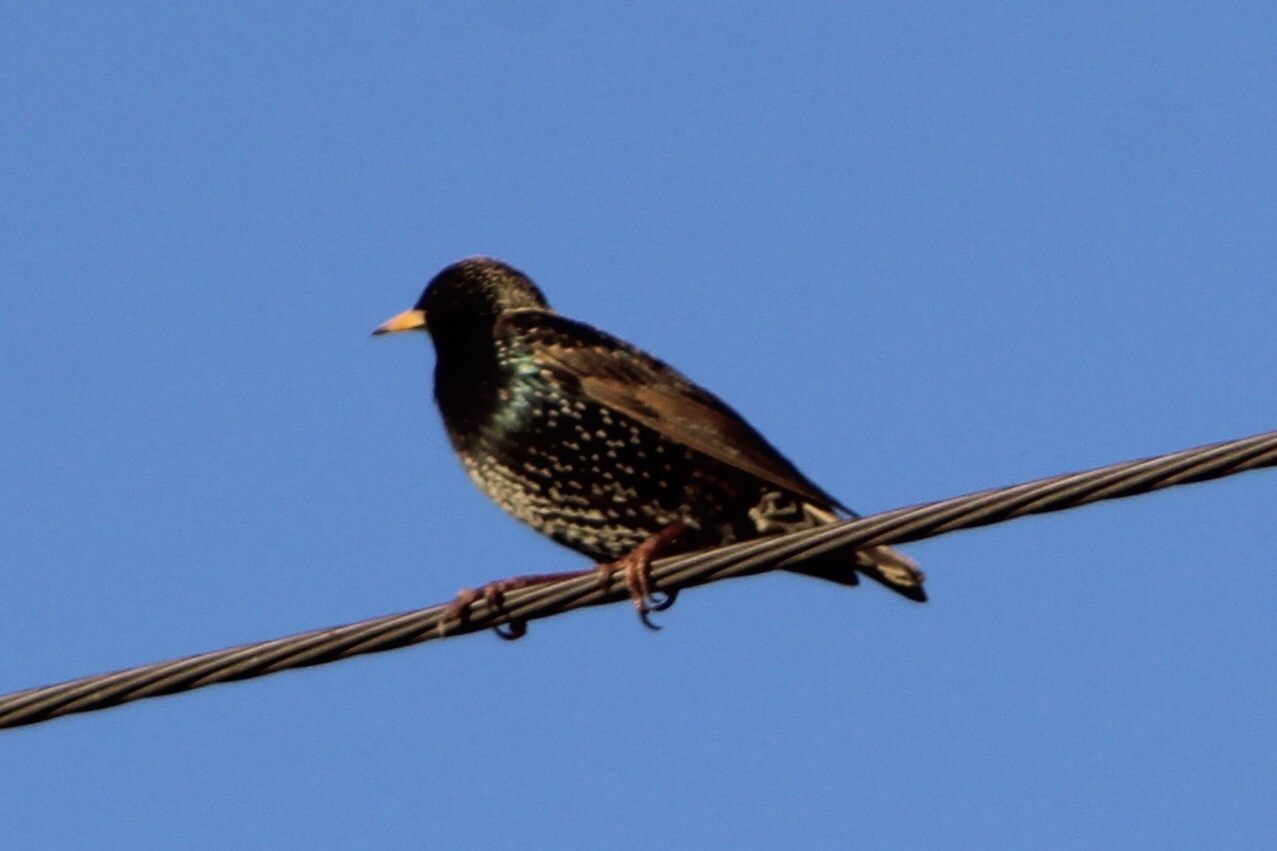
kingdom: Animalia
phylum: Chordata
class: Aves
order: Passeriformes
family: Sturnidae
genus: Sturnus
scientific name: Sturnus vulgaris
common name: Common starling
